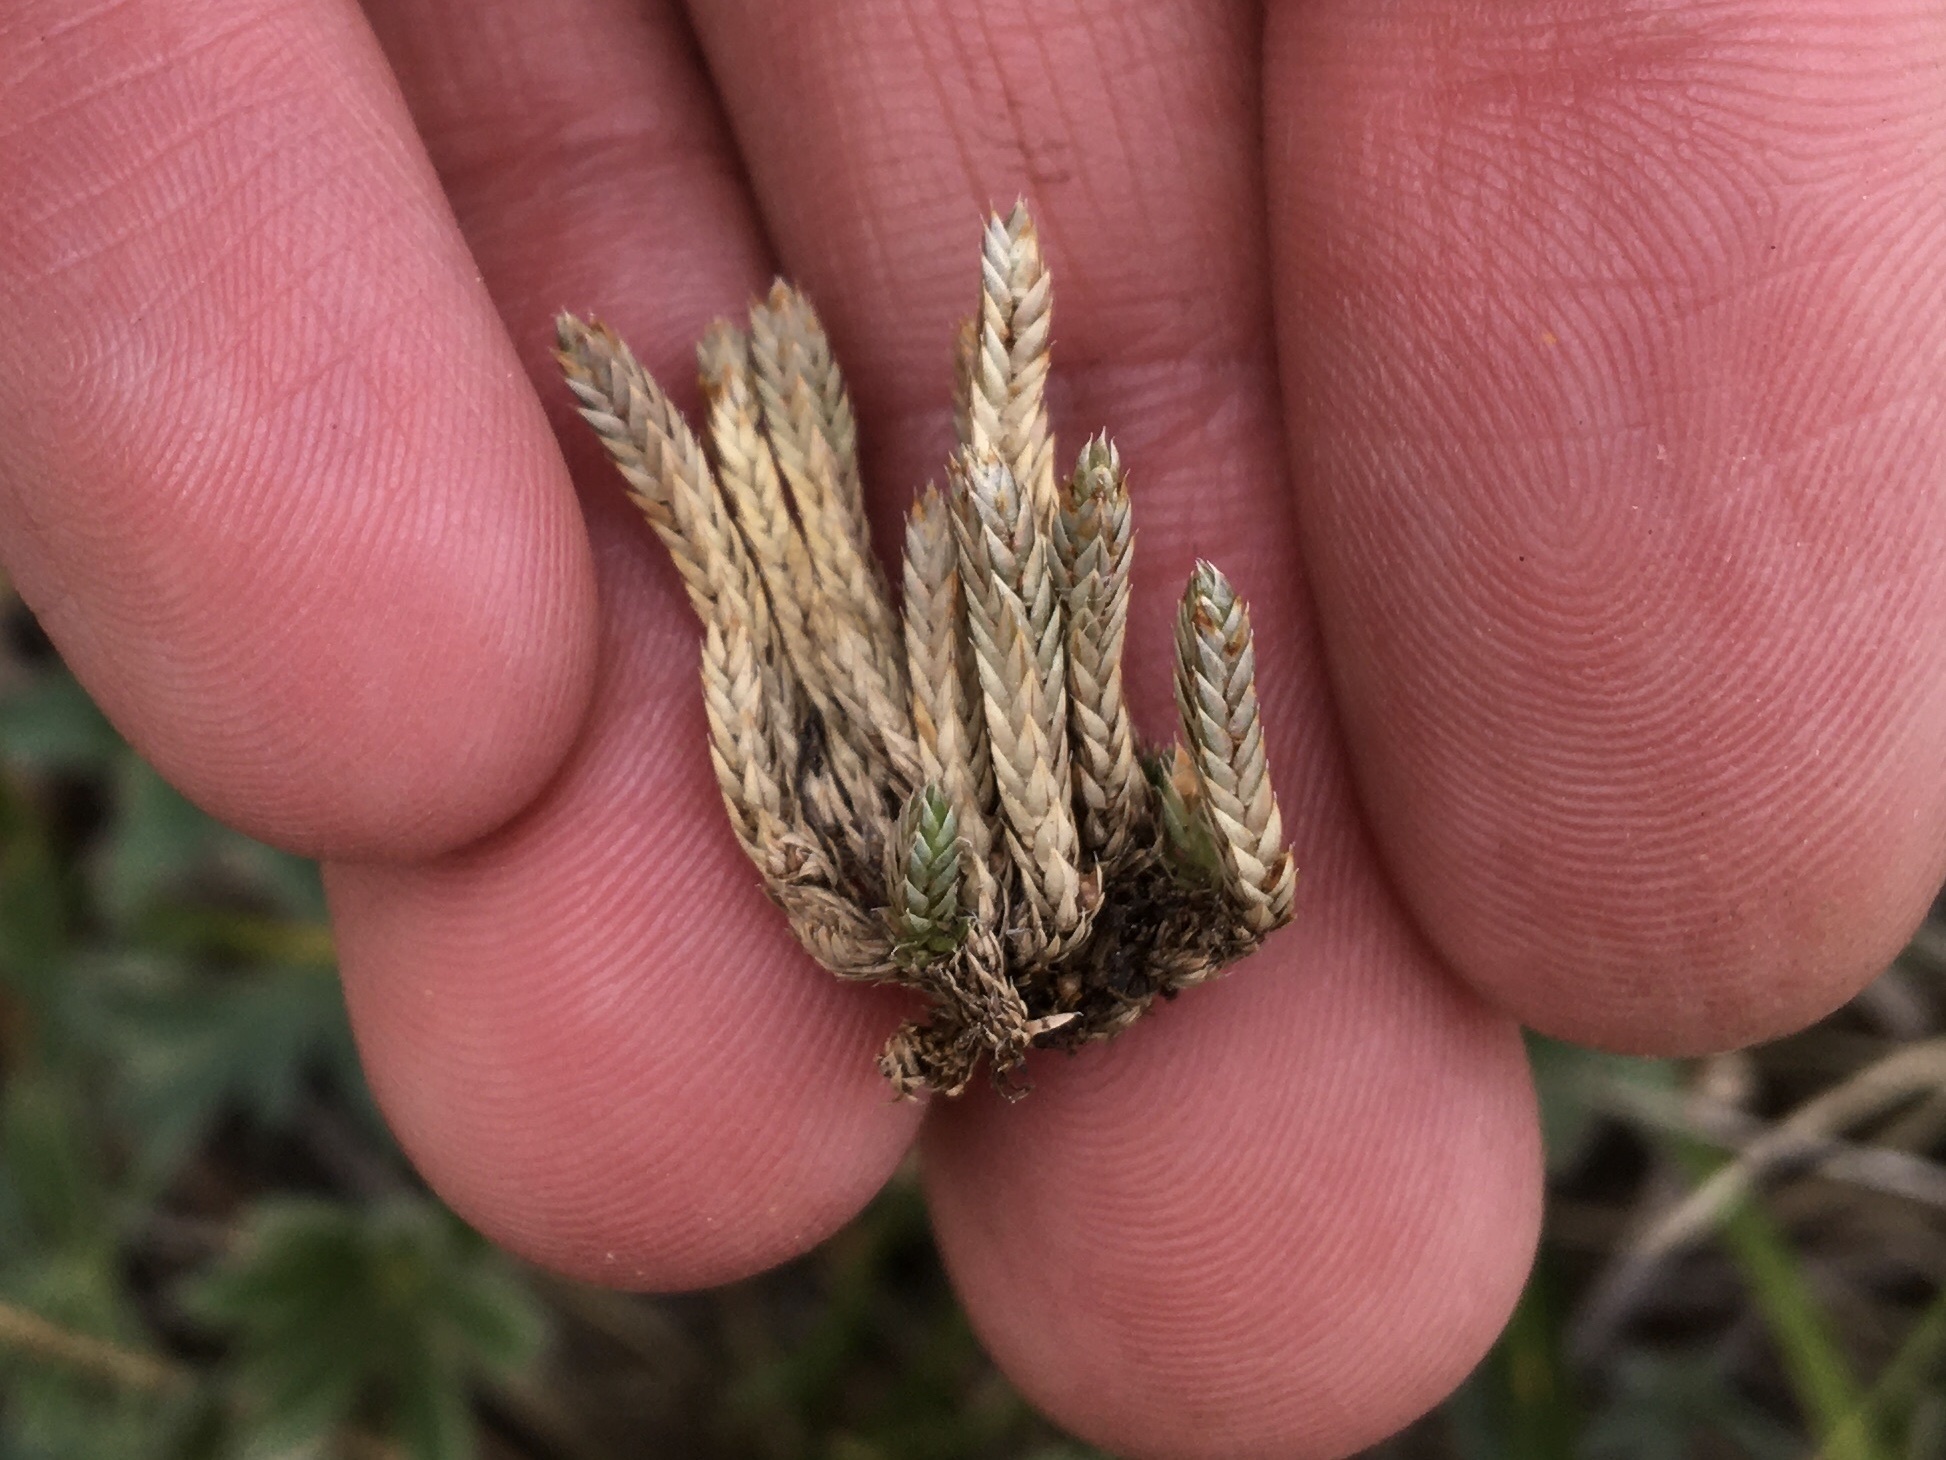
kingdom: Plantae
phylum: Tracheophyta
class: Lycopodiopsida
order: Selaginellales
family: Selaginellaceae
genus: Selaginella
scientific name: Selaginella densa
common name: Mountain spike-moss
